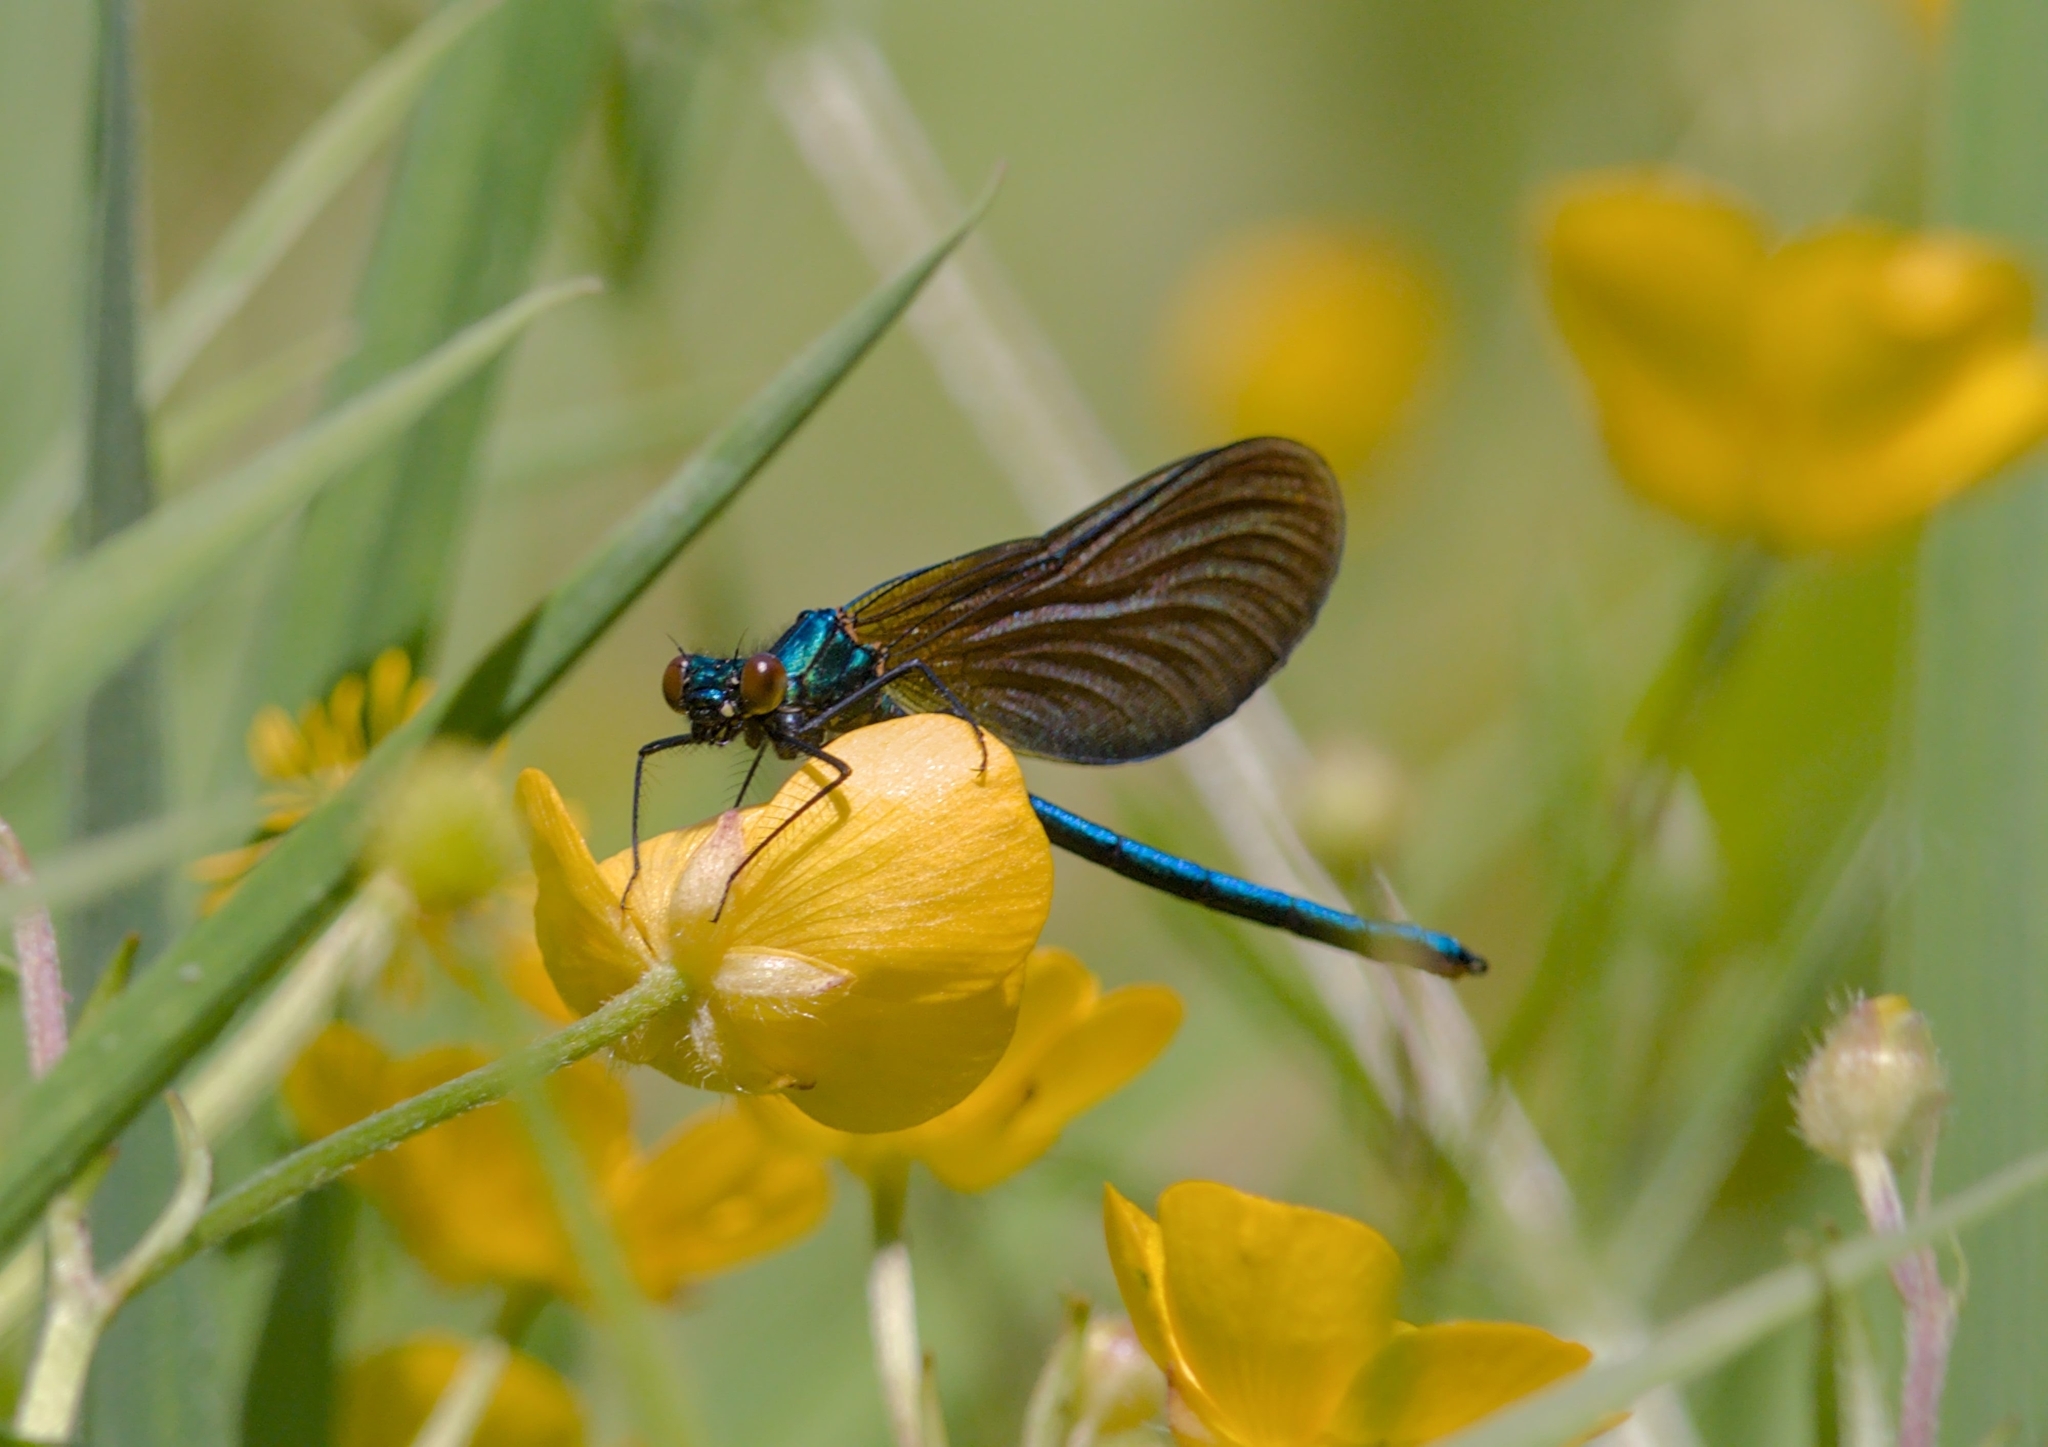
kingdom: Animalia
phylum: Arthropoda
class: Insecta
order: Odonata
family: Calopterygidae
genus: Calopteryx
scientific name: Calopteryx virgo
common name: Beautiful demoiselle
